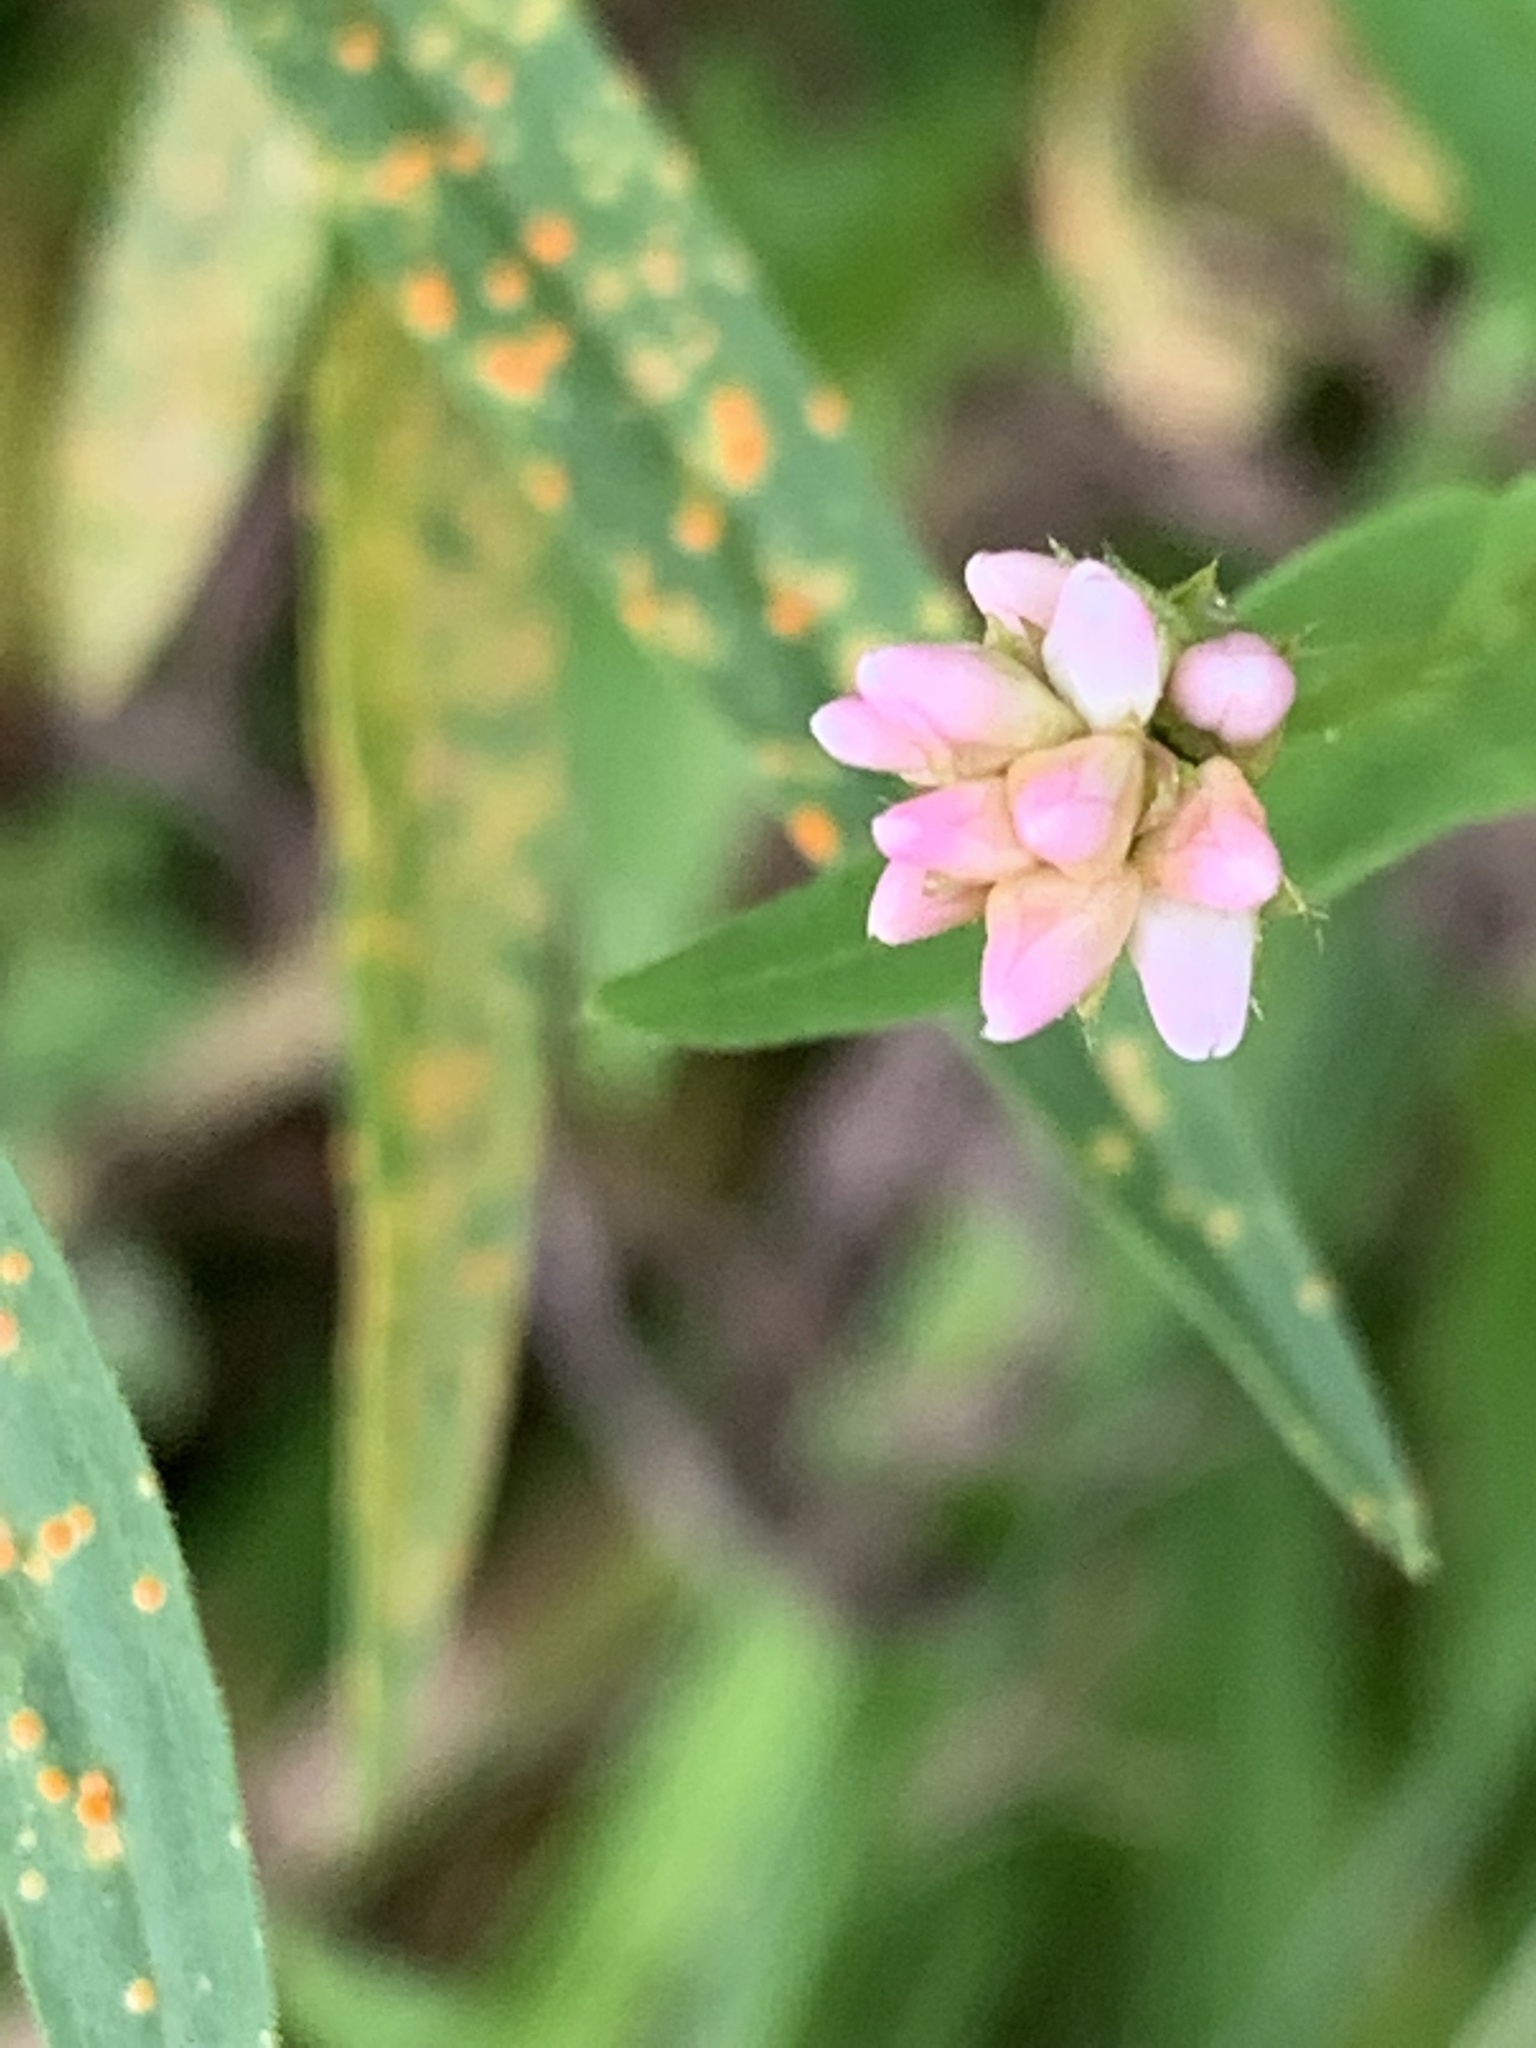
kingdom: Plantae
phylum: Tracheophyta
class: Magnoliopsida
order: Caryophyllales
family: Polygonaceae
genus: Persicaria
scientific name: Persicaria sagittata
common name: American tearthumb
